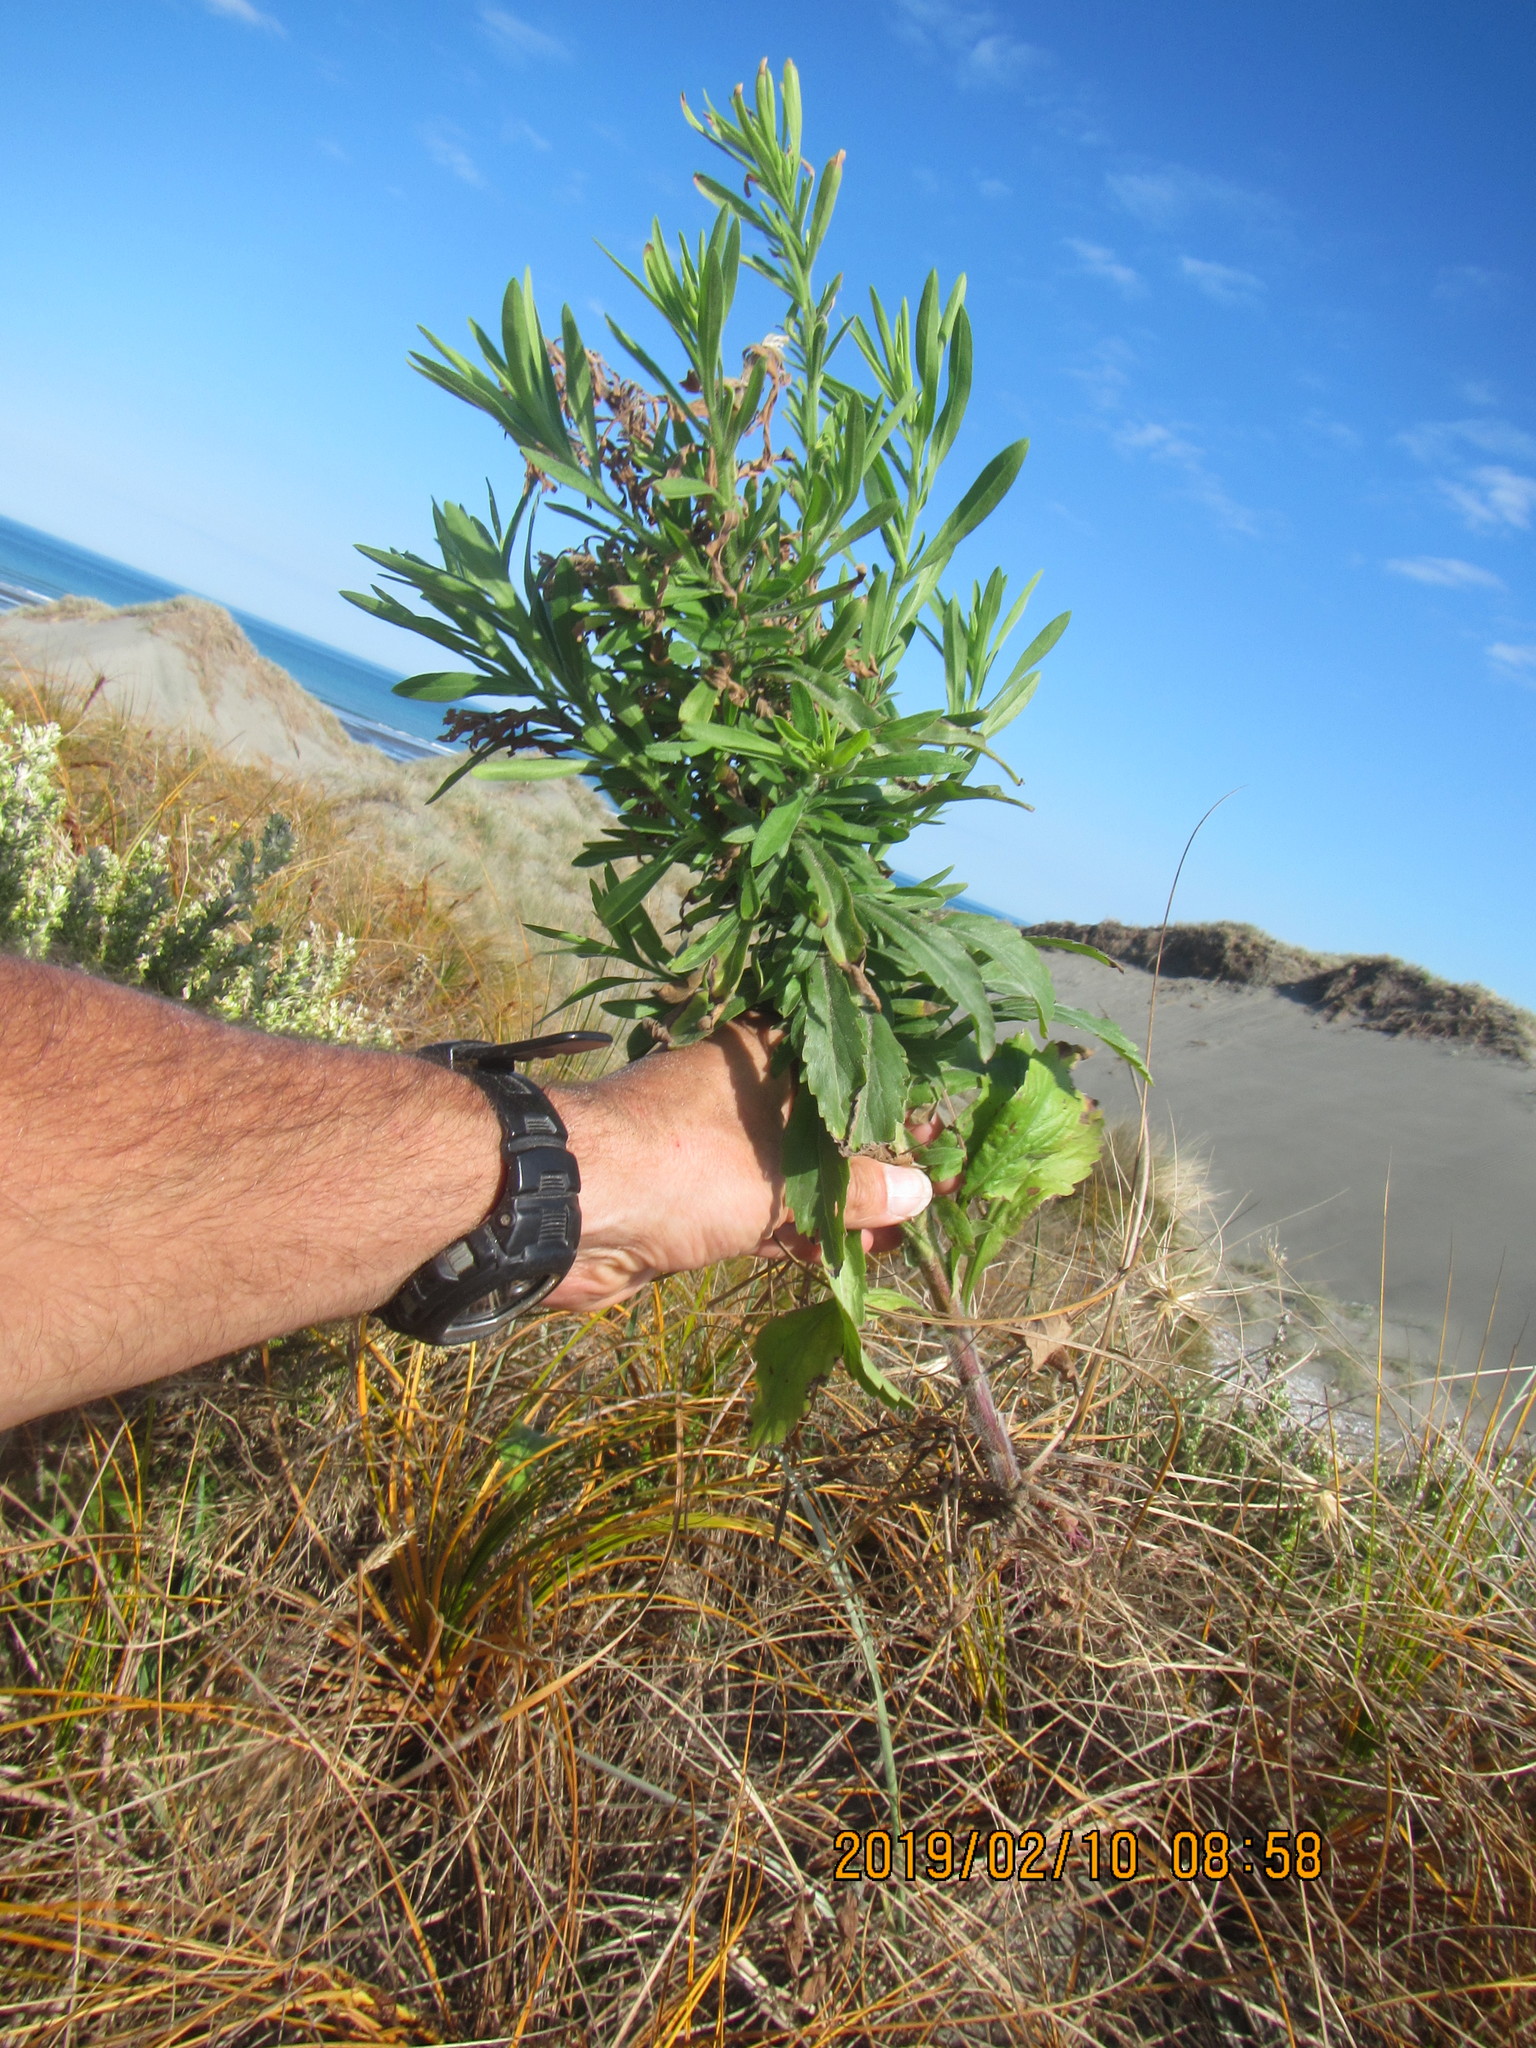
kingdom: Plantae
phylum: Tracheophyta
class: Magnoliopsida
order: Asterales
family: Asteraceae
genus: Erigeron
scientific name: Erigeron sumatrensis
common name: Daisy
